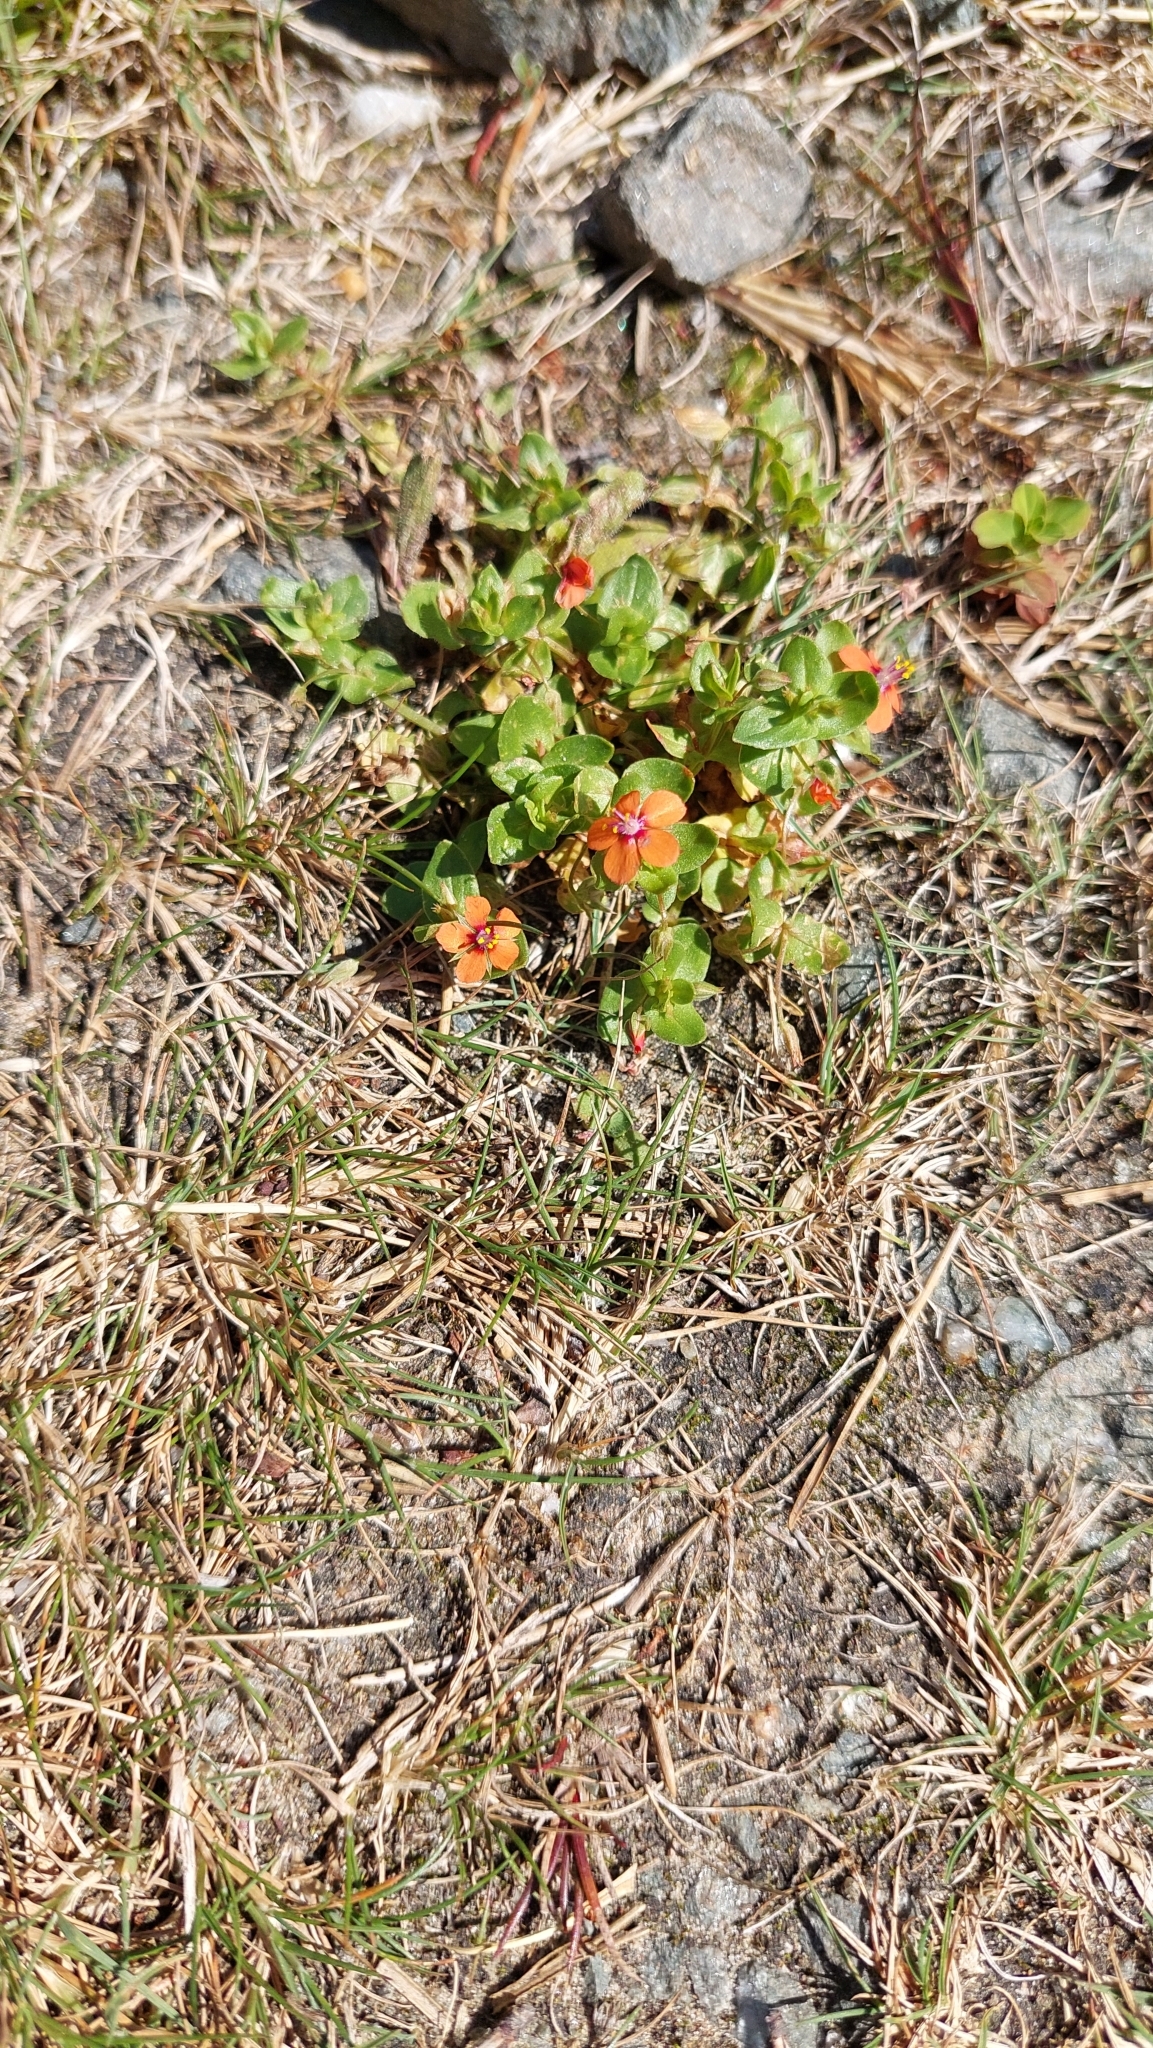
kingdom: Plantae
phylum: Tracheophyta
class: Magnoliopsida
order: Ericales
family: Primulaceae
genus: Lysimachia
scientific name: Lysimachia arvensis
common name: Scarlet pimpernel
